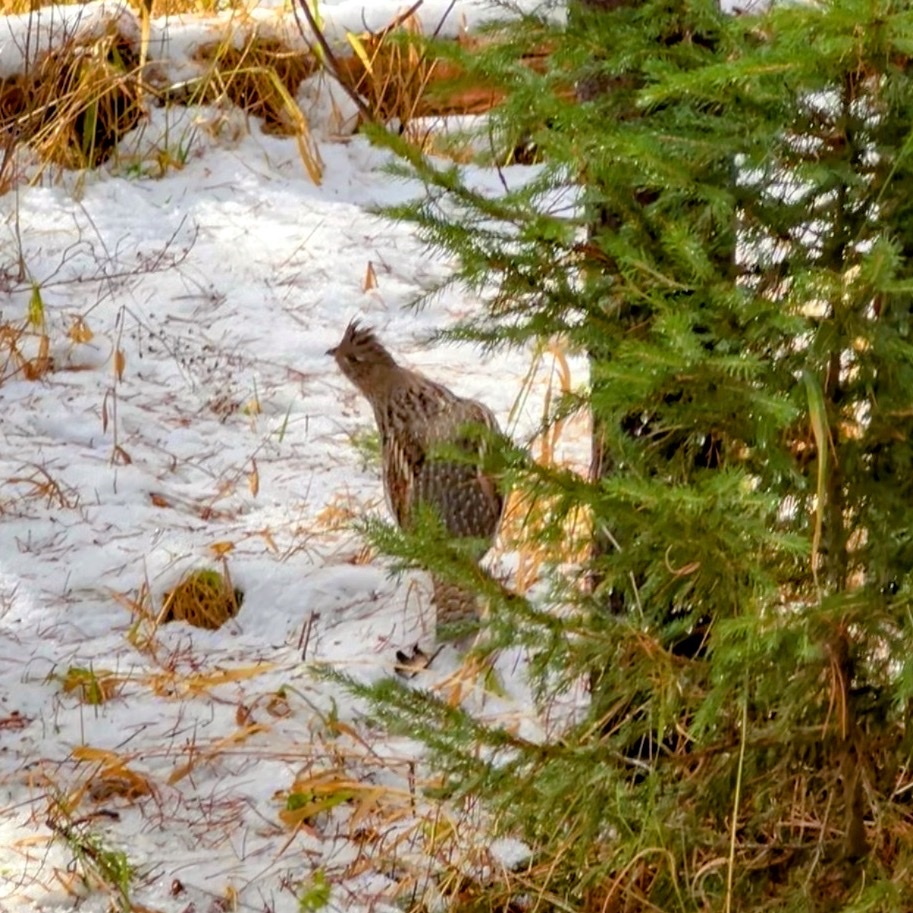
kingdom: Animalia
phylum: Chordata
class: Aves
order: Galliformes
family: Phasianidae
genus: Bonasa
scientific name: Bonasa umbellus
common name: Ruffed grouse
